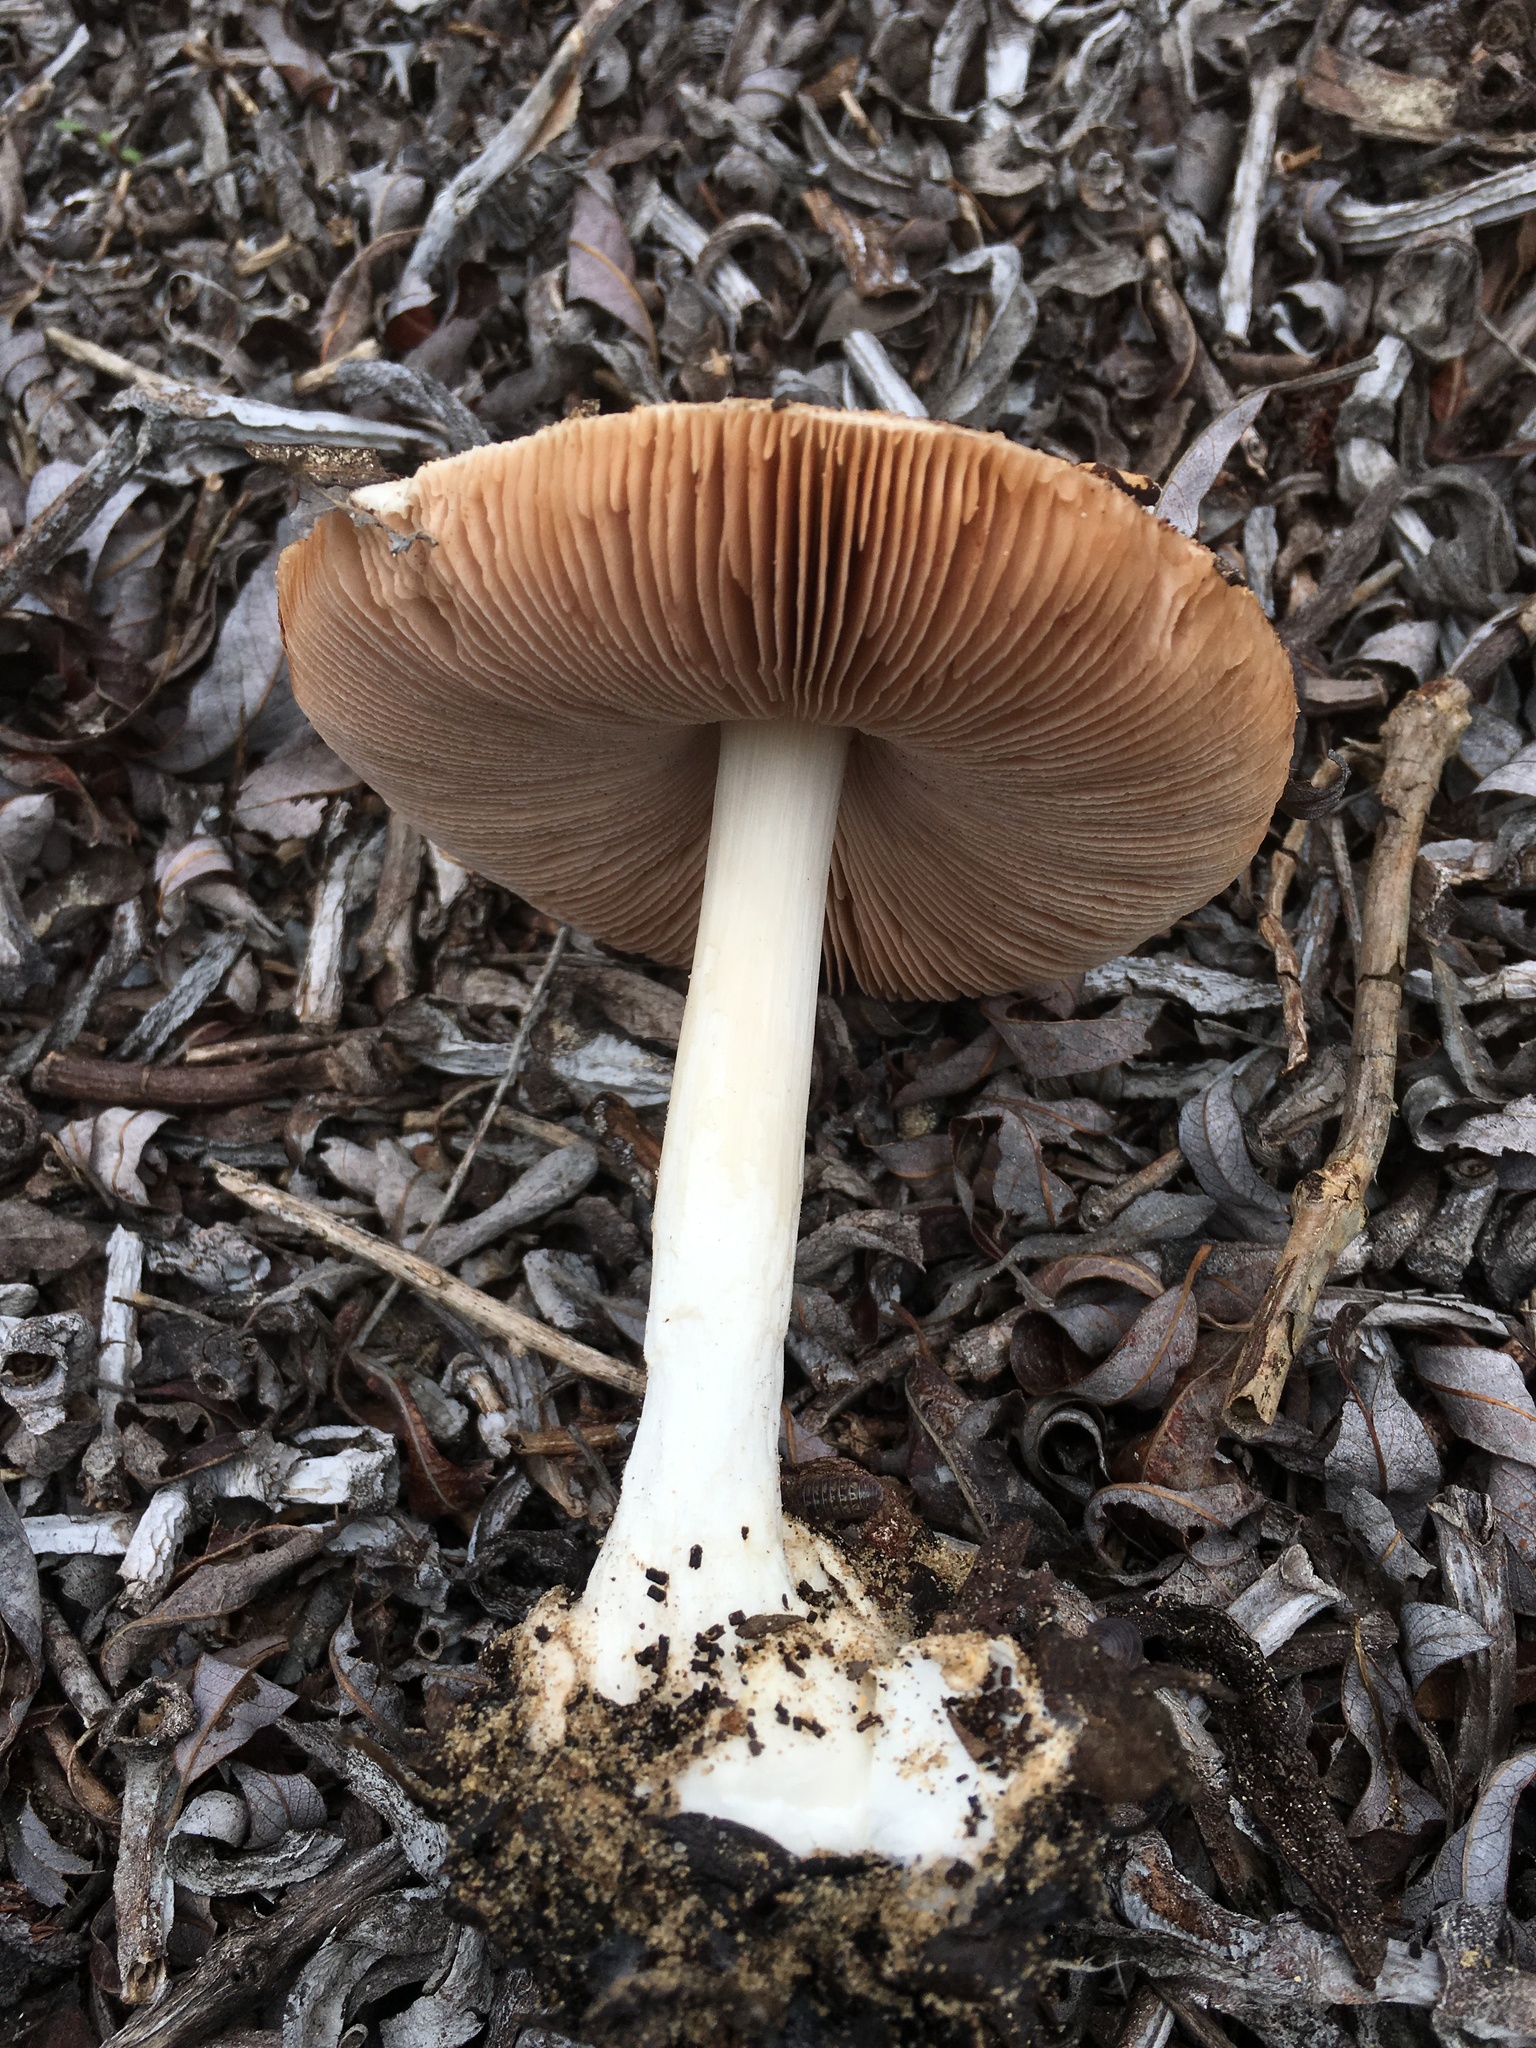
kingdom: Fungi
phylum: Basidiomycota
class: Agaricomycetes
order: Agaricales
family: Pluteaceae
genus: Volvopluteus
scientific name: Volvopluteus gloiocephalus
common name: Stubble rosegill
